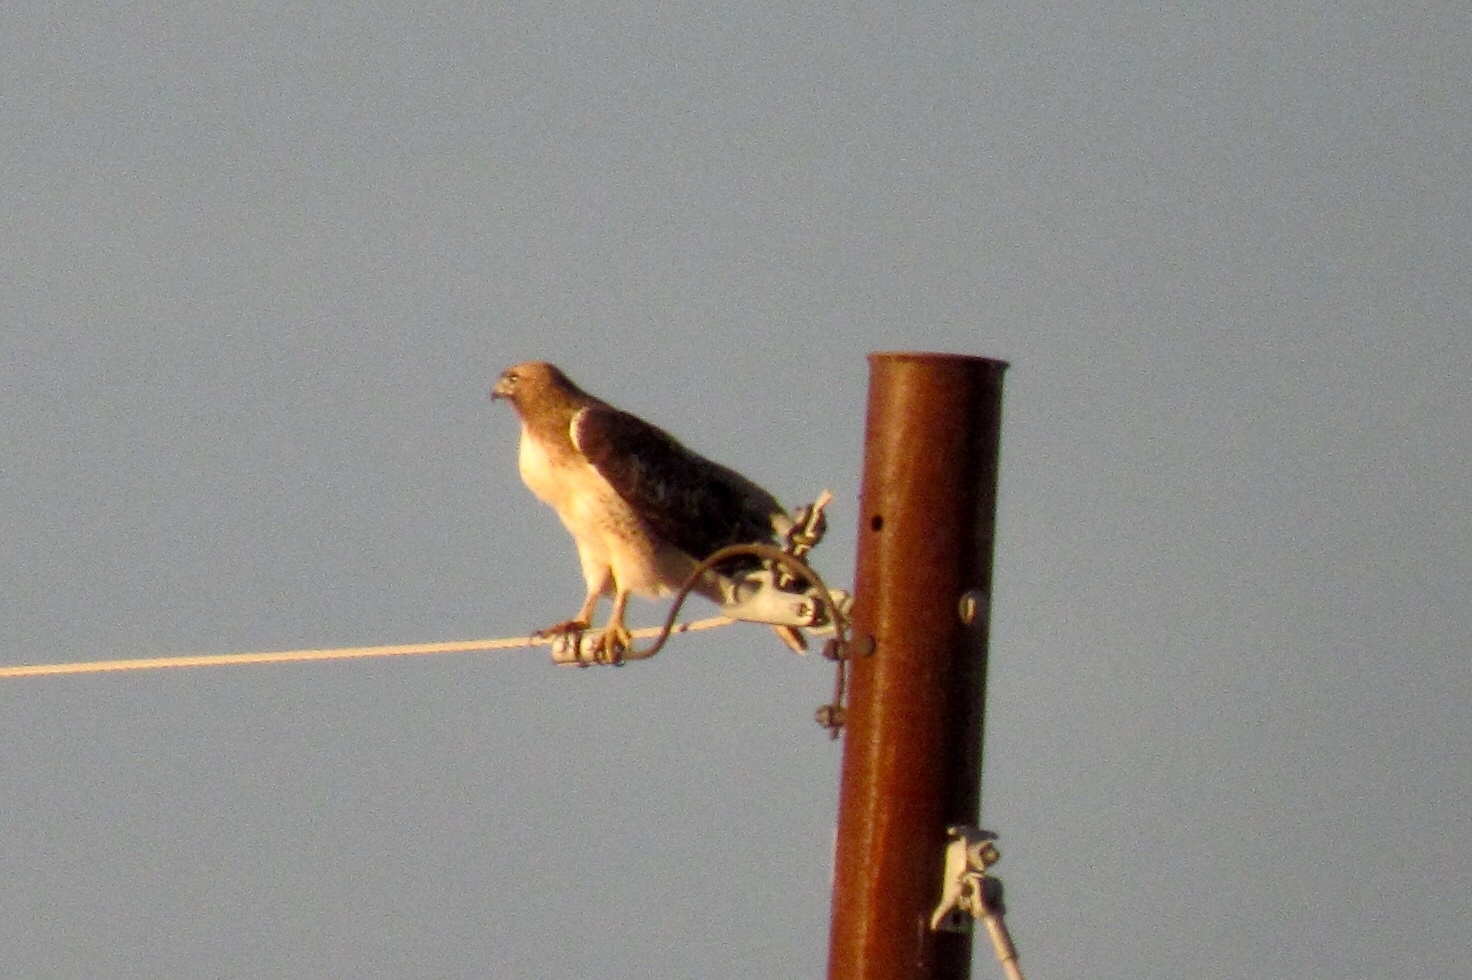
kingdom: Animalia
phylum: Chordata
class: Aves
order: Accipitriformes
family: Accipitridae
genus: Buteo
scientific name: Buteo jamaicensis
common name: Red-tailed hawk
